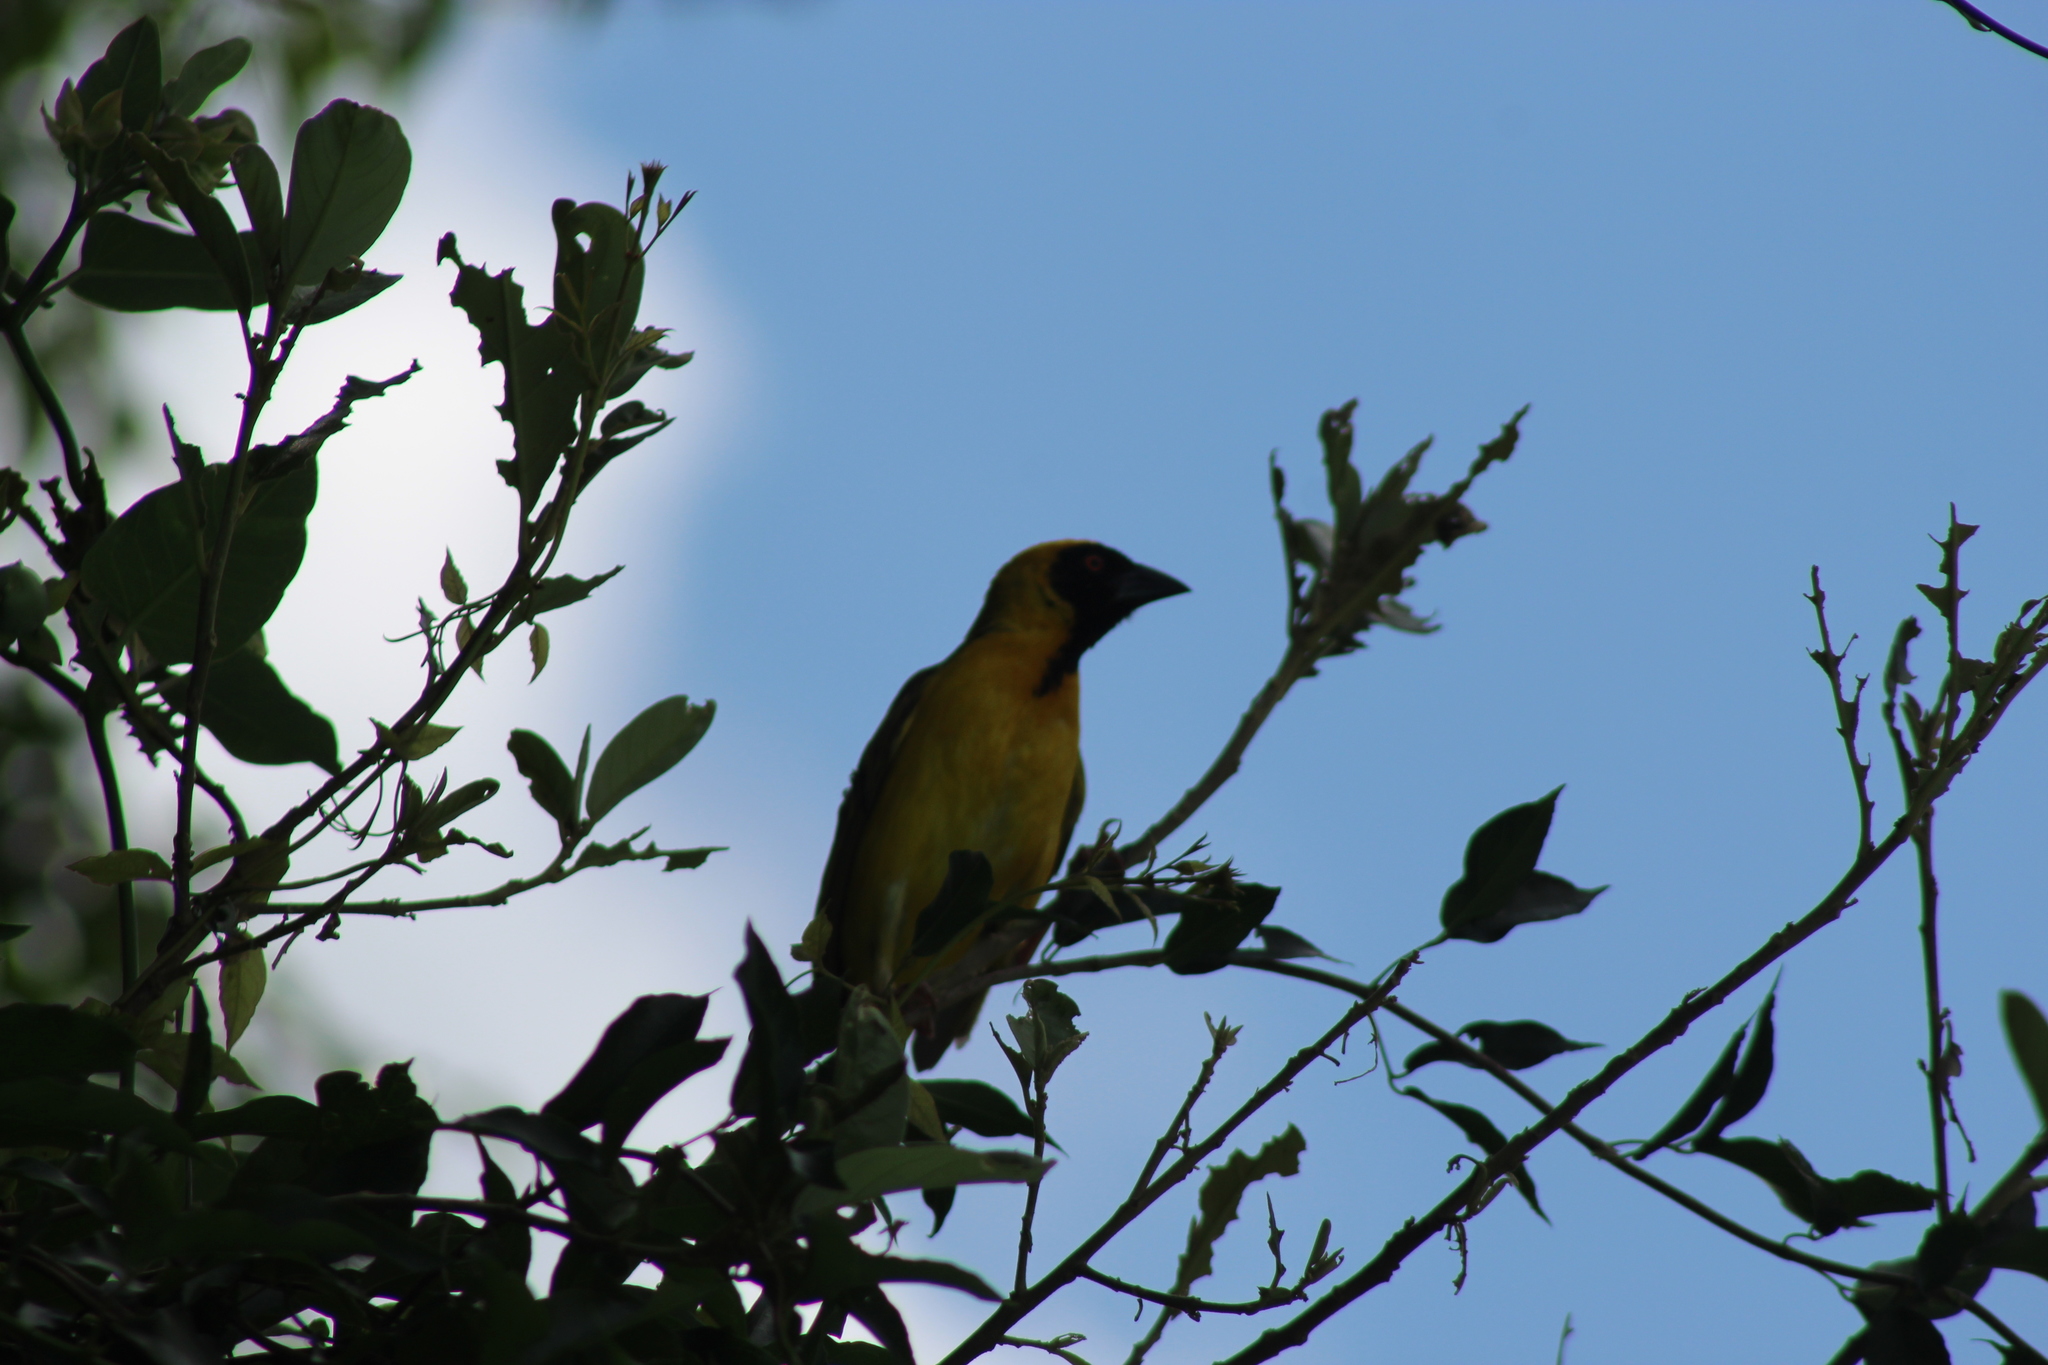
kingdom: Animalia
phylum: Chordata
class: Aves
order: Passeriformes
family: Ploceidae
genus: Ploceus
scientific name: Ploceus velatus
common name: Southern masked weaver
